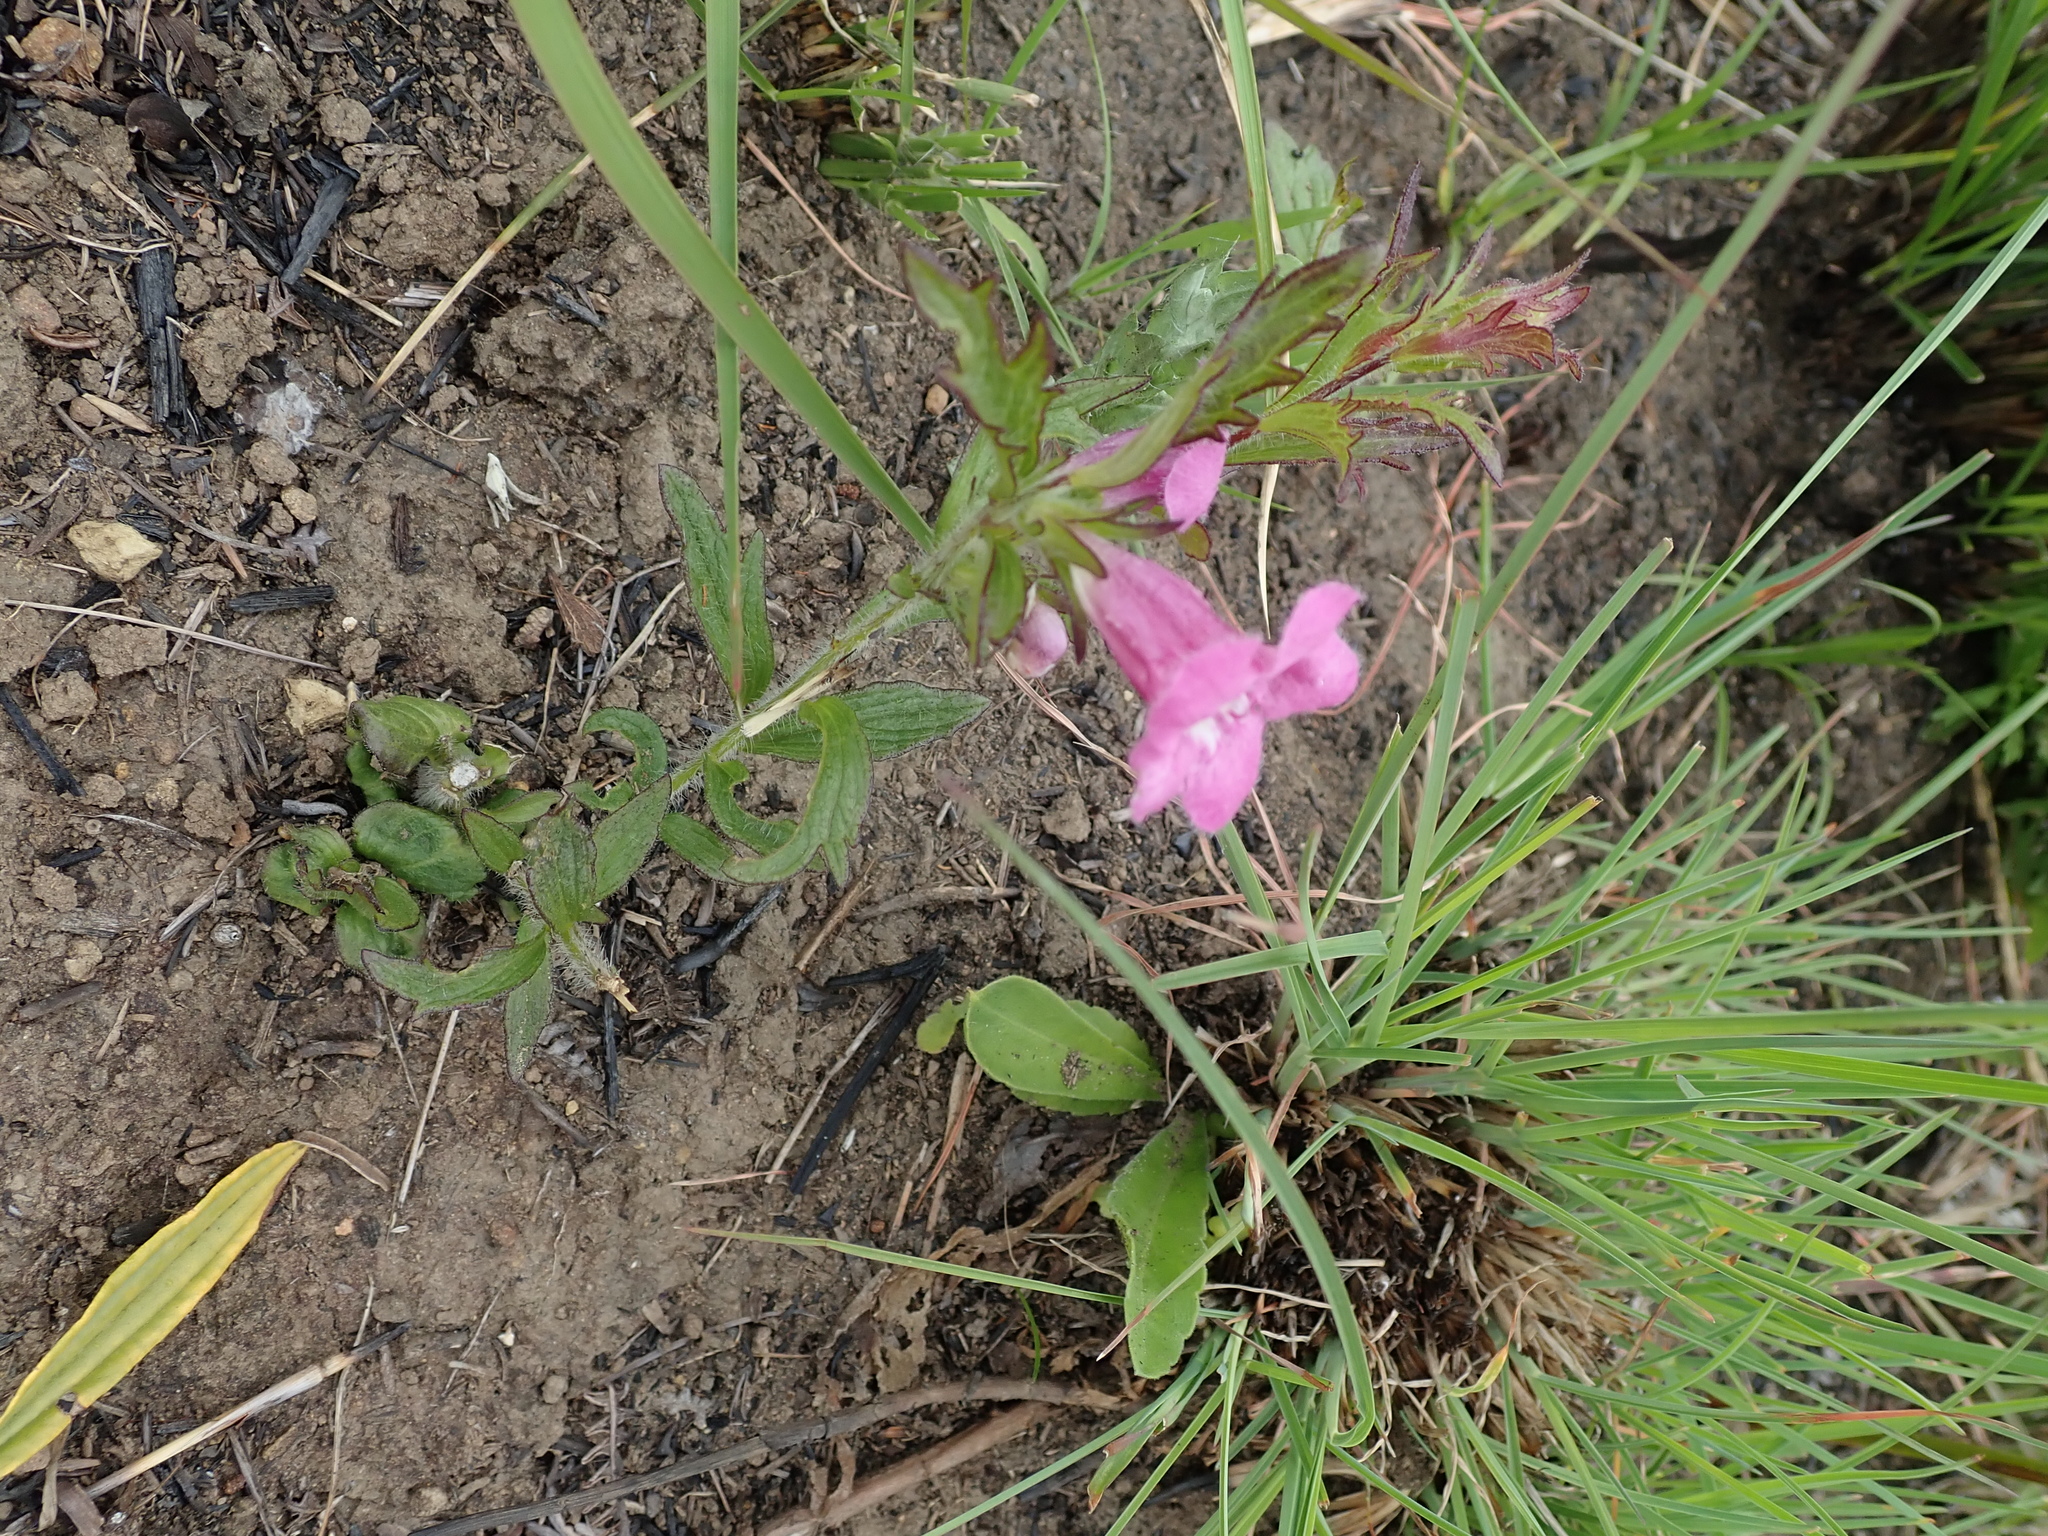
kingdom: Plantae
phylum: Tracheophyta
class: Magnoliopsida
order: Lamiales
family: Orobanchaceae
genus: Graderia
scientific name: Graderia scabra
